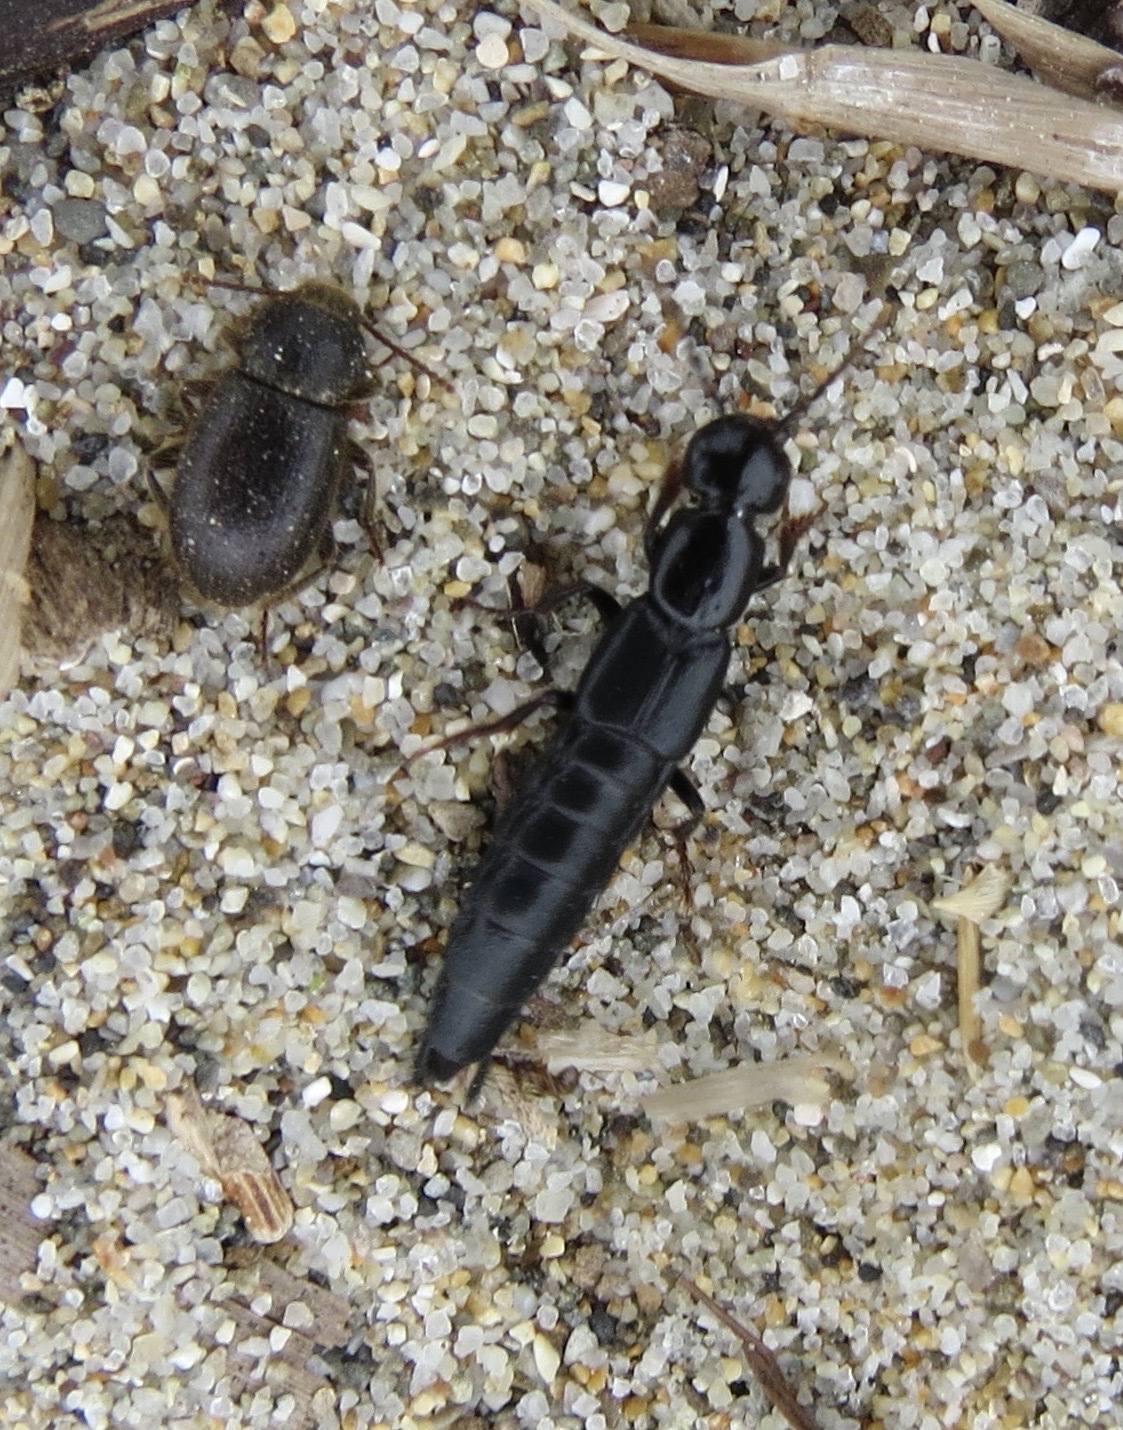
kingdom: Animalia
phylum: Arthropoda
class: Insecta
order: Coleoptera
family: Staphylinidae
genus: Tasgius
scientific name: Tasgius ater
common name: Staph beetle
